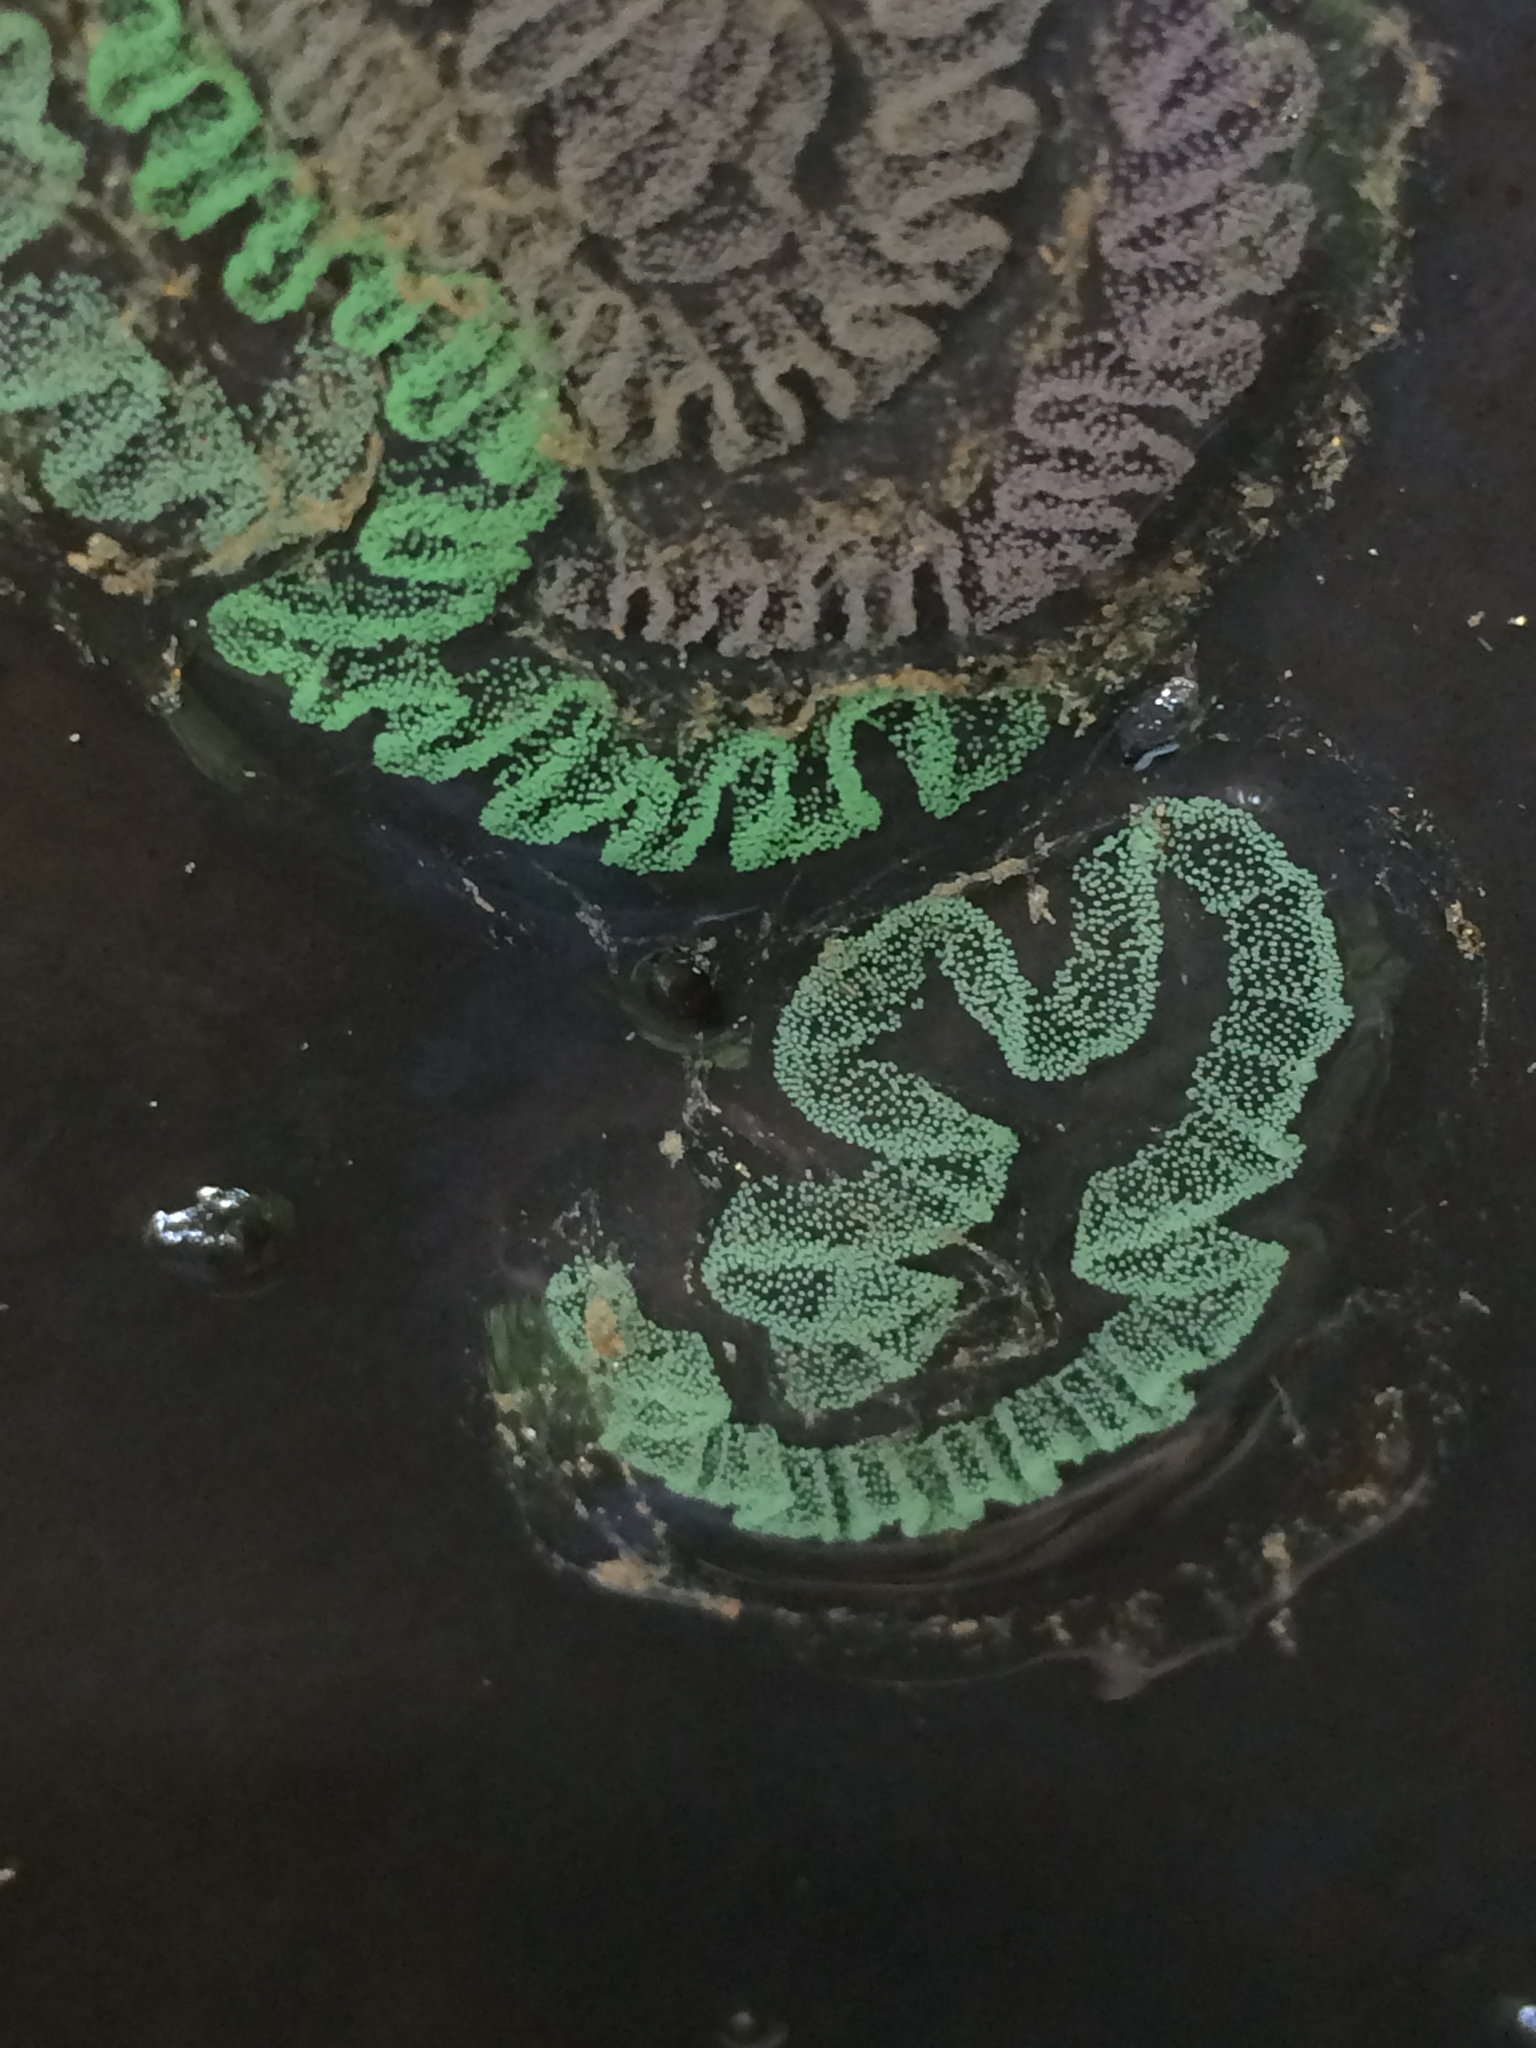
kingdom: Animalia
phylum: Mollusca
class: Gastropoda
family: Zemelanopsidae
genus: Zemelanopsis
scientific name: Zemelanopsis trifasciata
